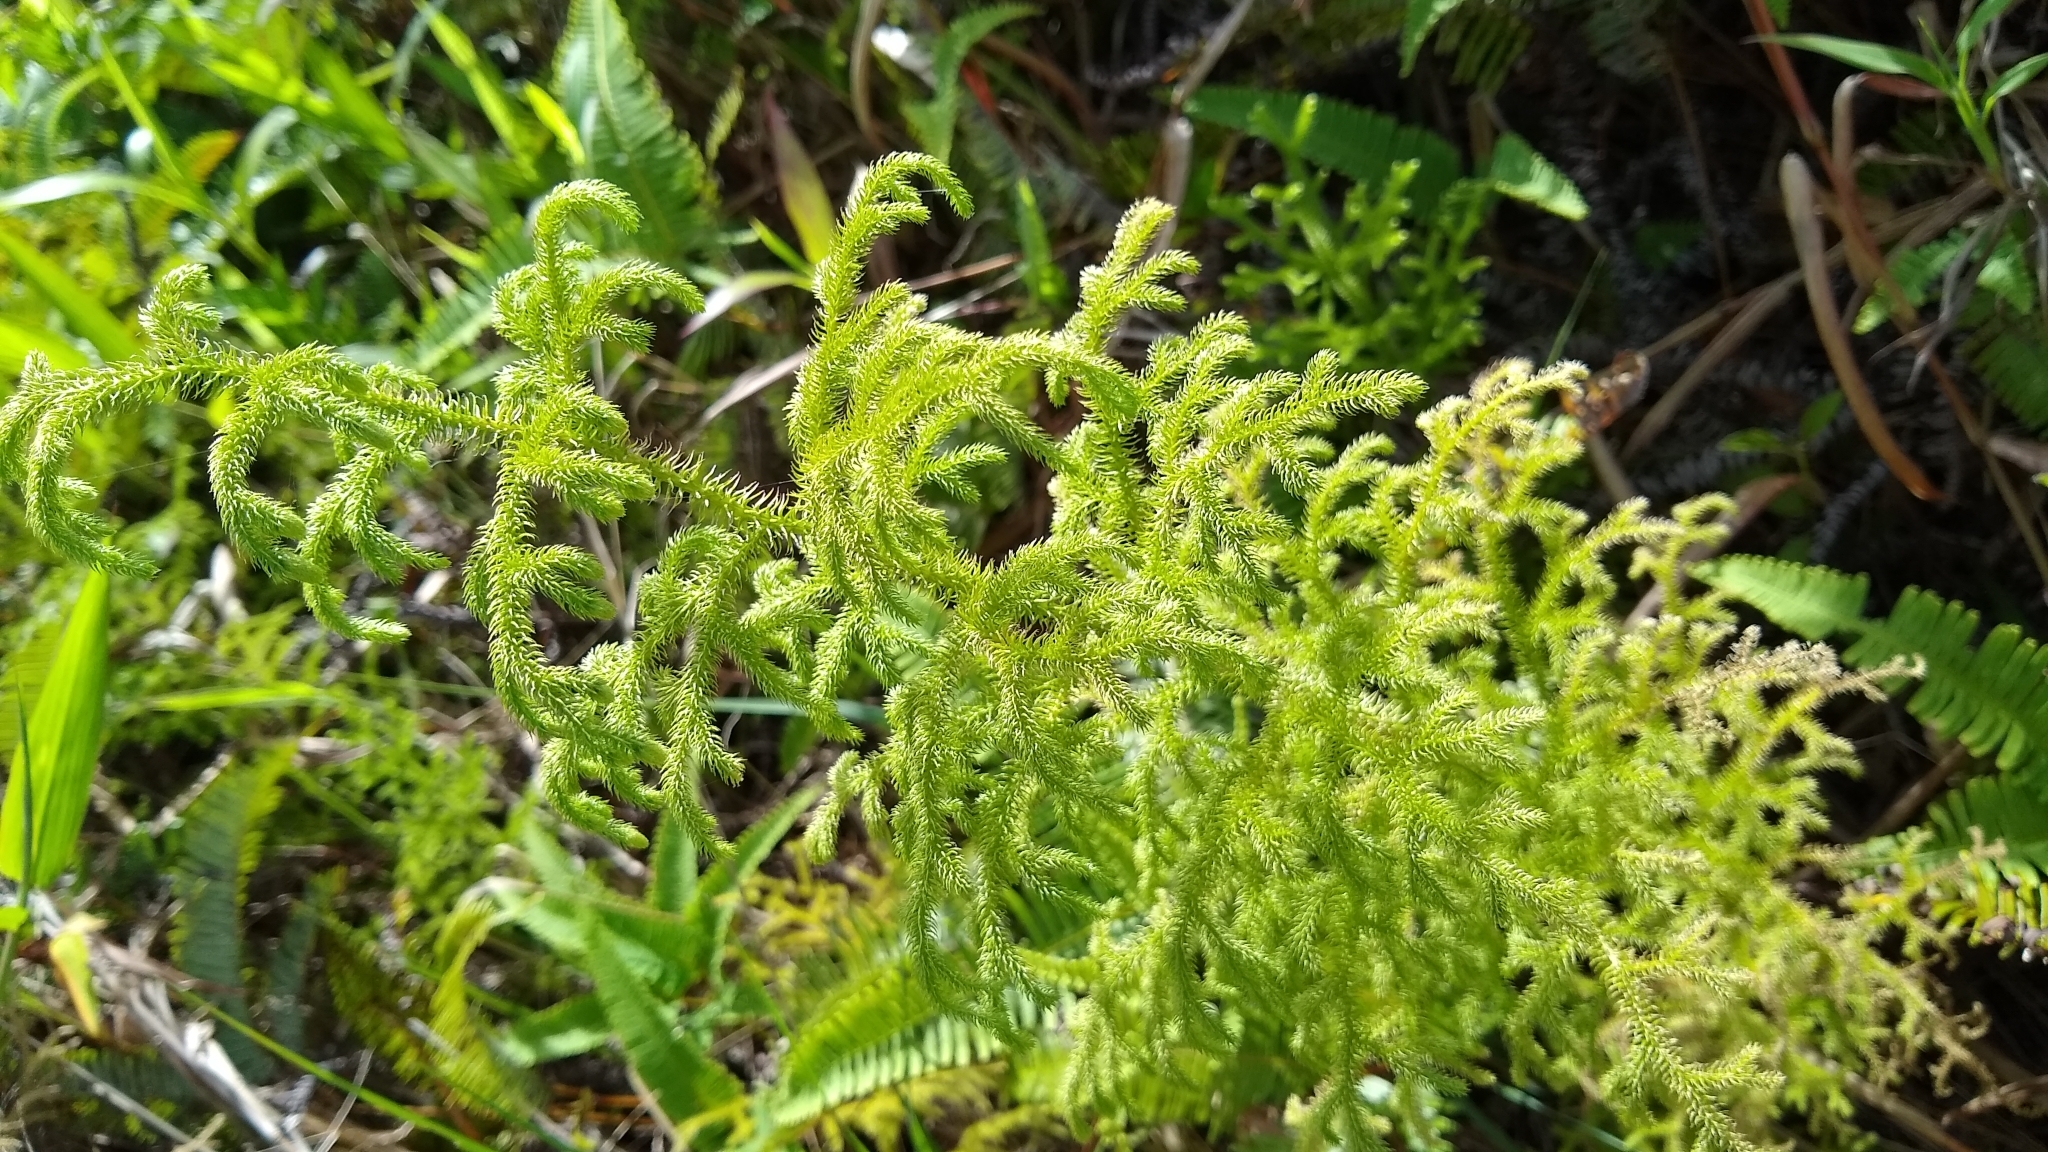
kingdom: Plantae
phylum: Tracheophyta
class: Lycopodiopsida
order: Lycopodiales
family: Lycopodiaceae
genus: Palhinhaea
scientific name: Palhinhaea cernua
